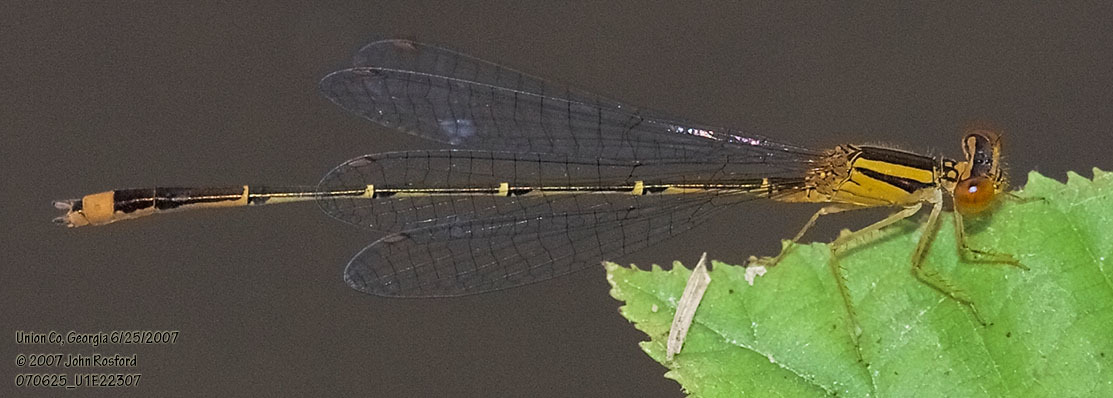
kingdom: Animalia
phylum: Arthropoda
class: Insecta
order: Odonata
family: Coenagrionidae
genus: Enallagma
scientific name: Enallagma signatum
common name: Orange bluet
